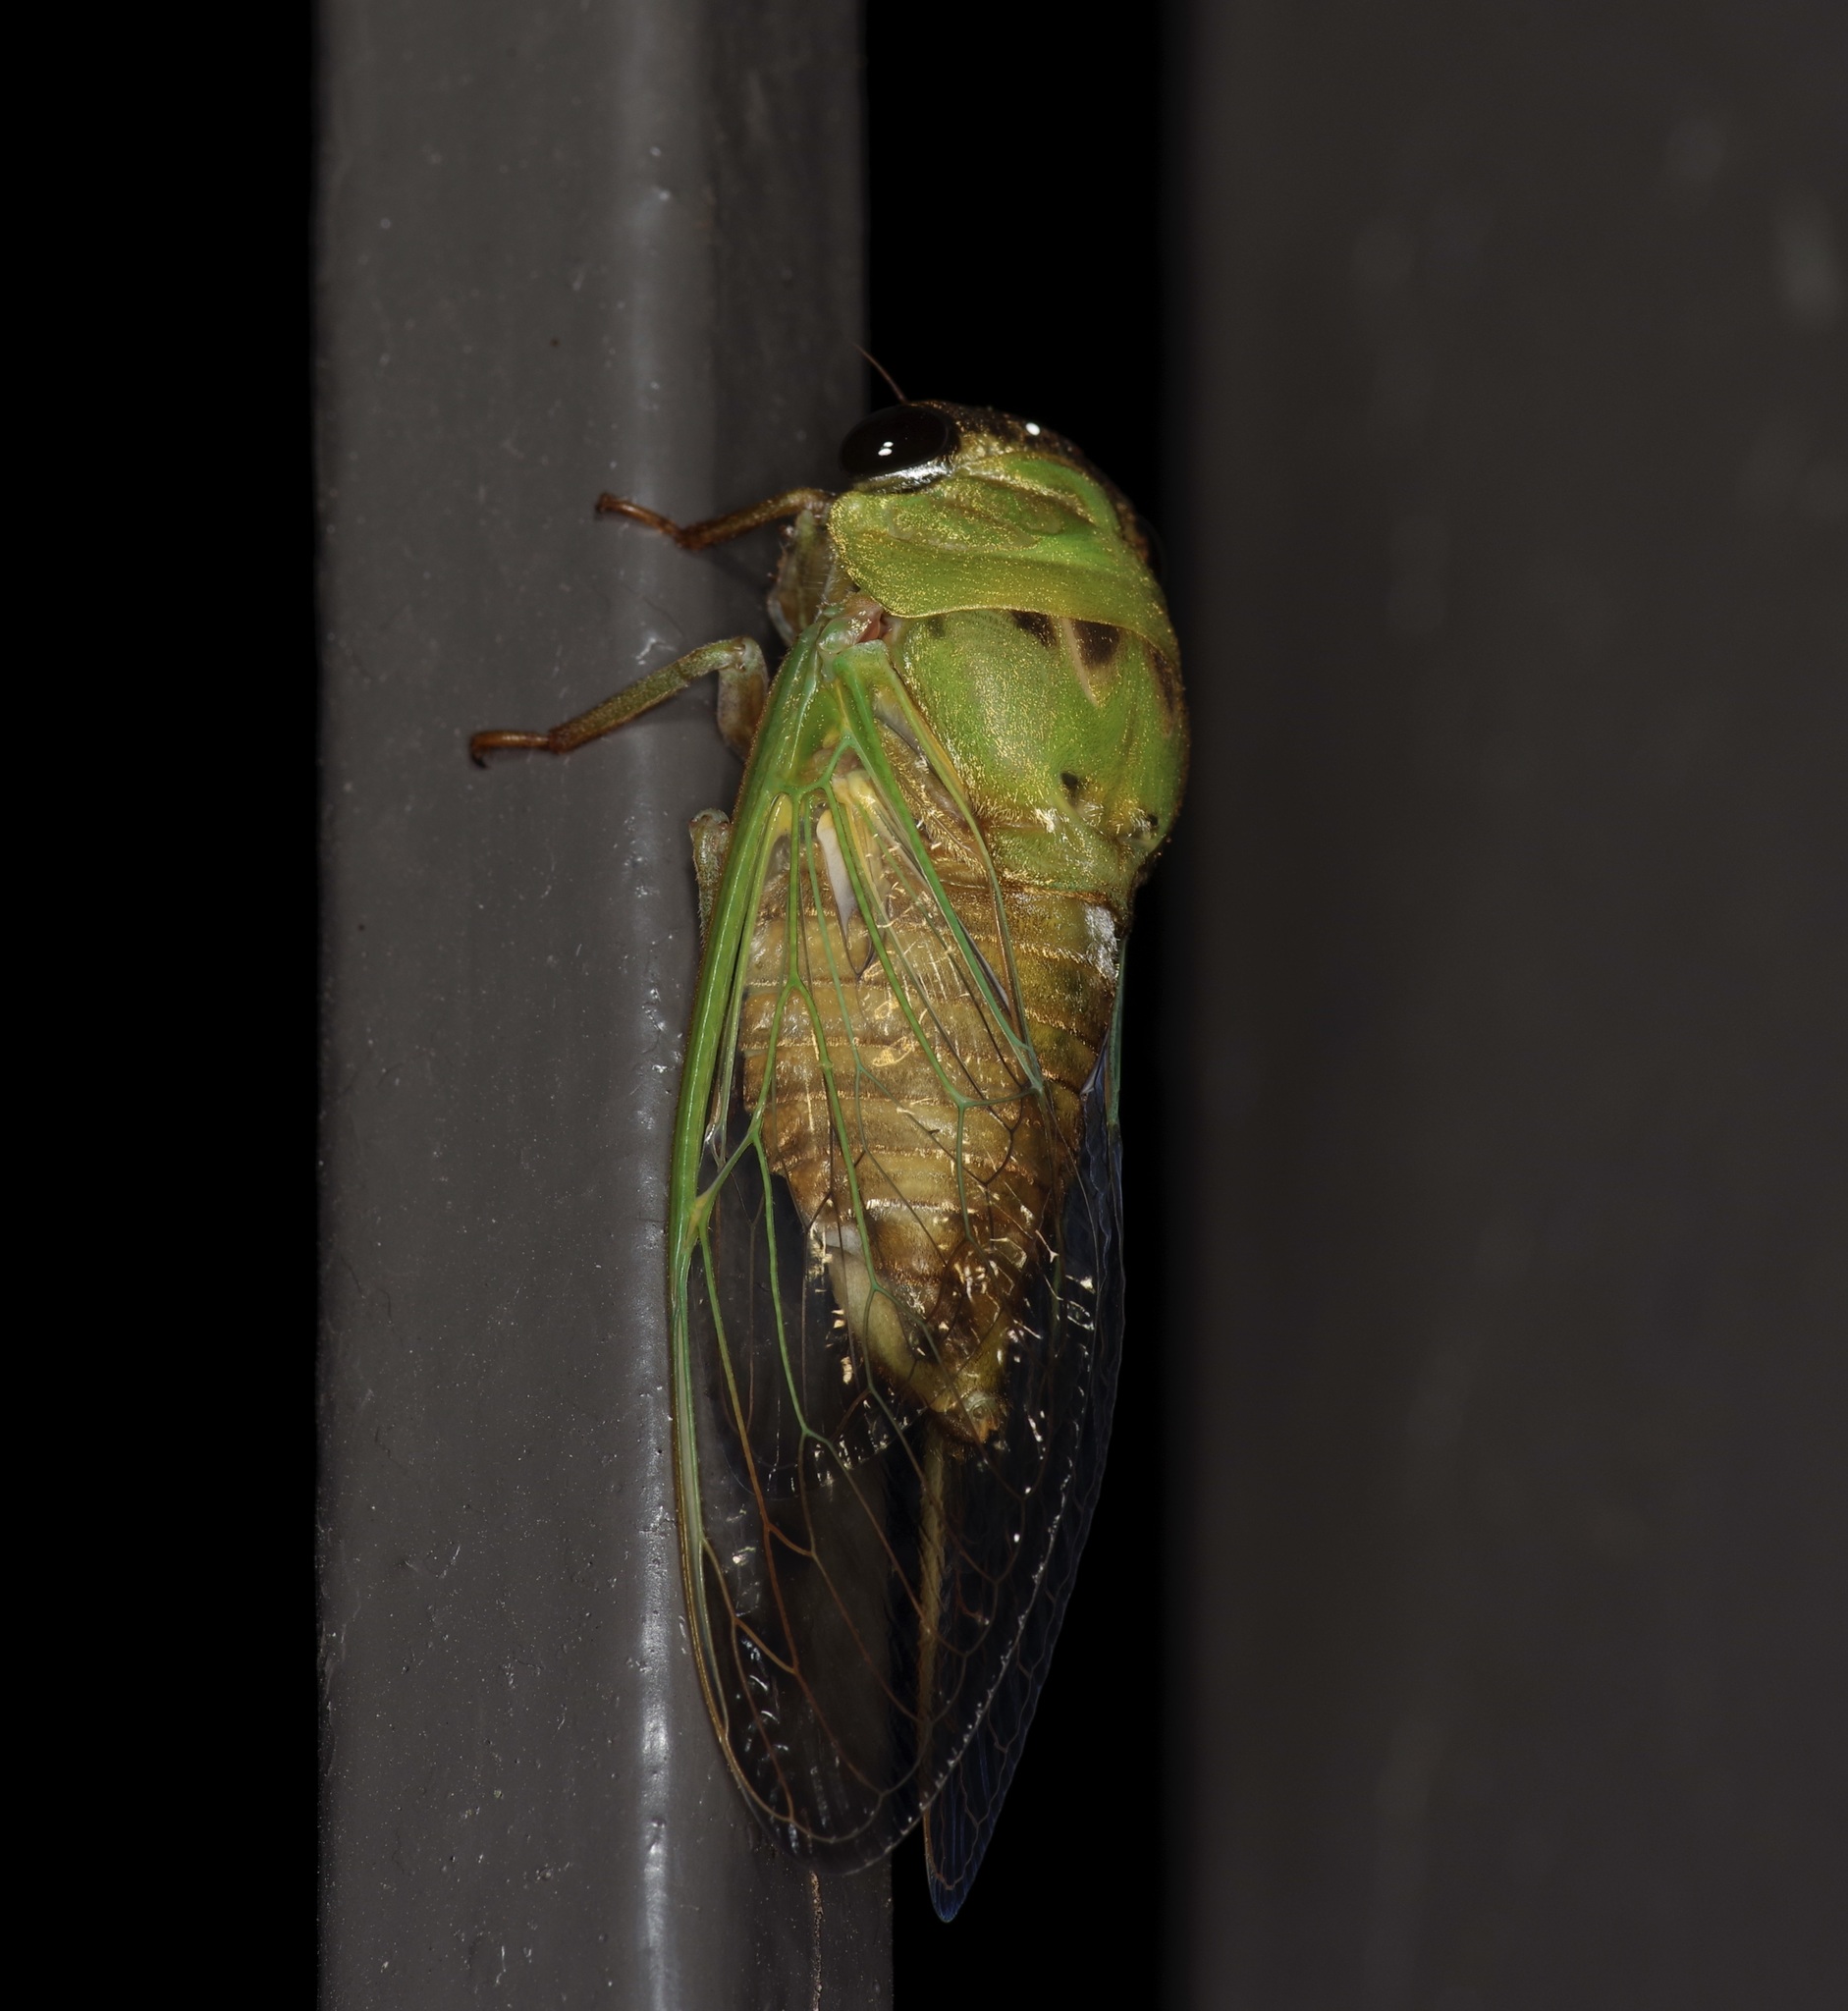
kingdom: Animalia
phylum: Arthropoda
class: Insecta
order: Hemiptera
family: Cicadidae
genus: Neotibicen
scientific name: Neotibicen superbus
